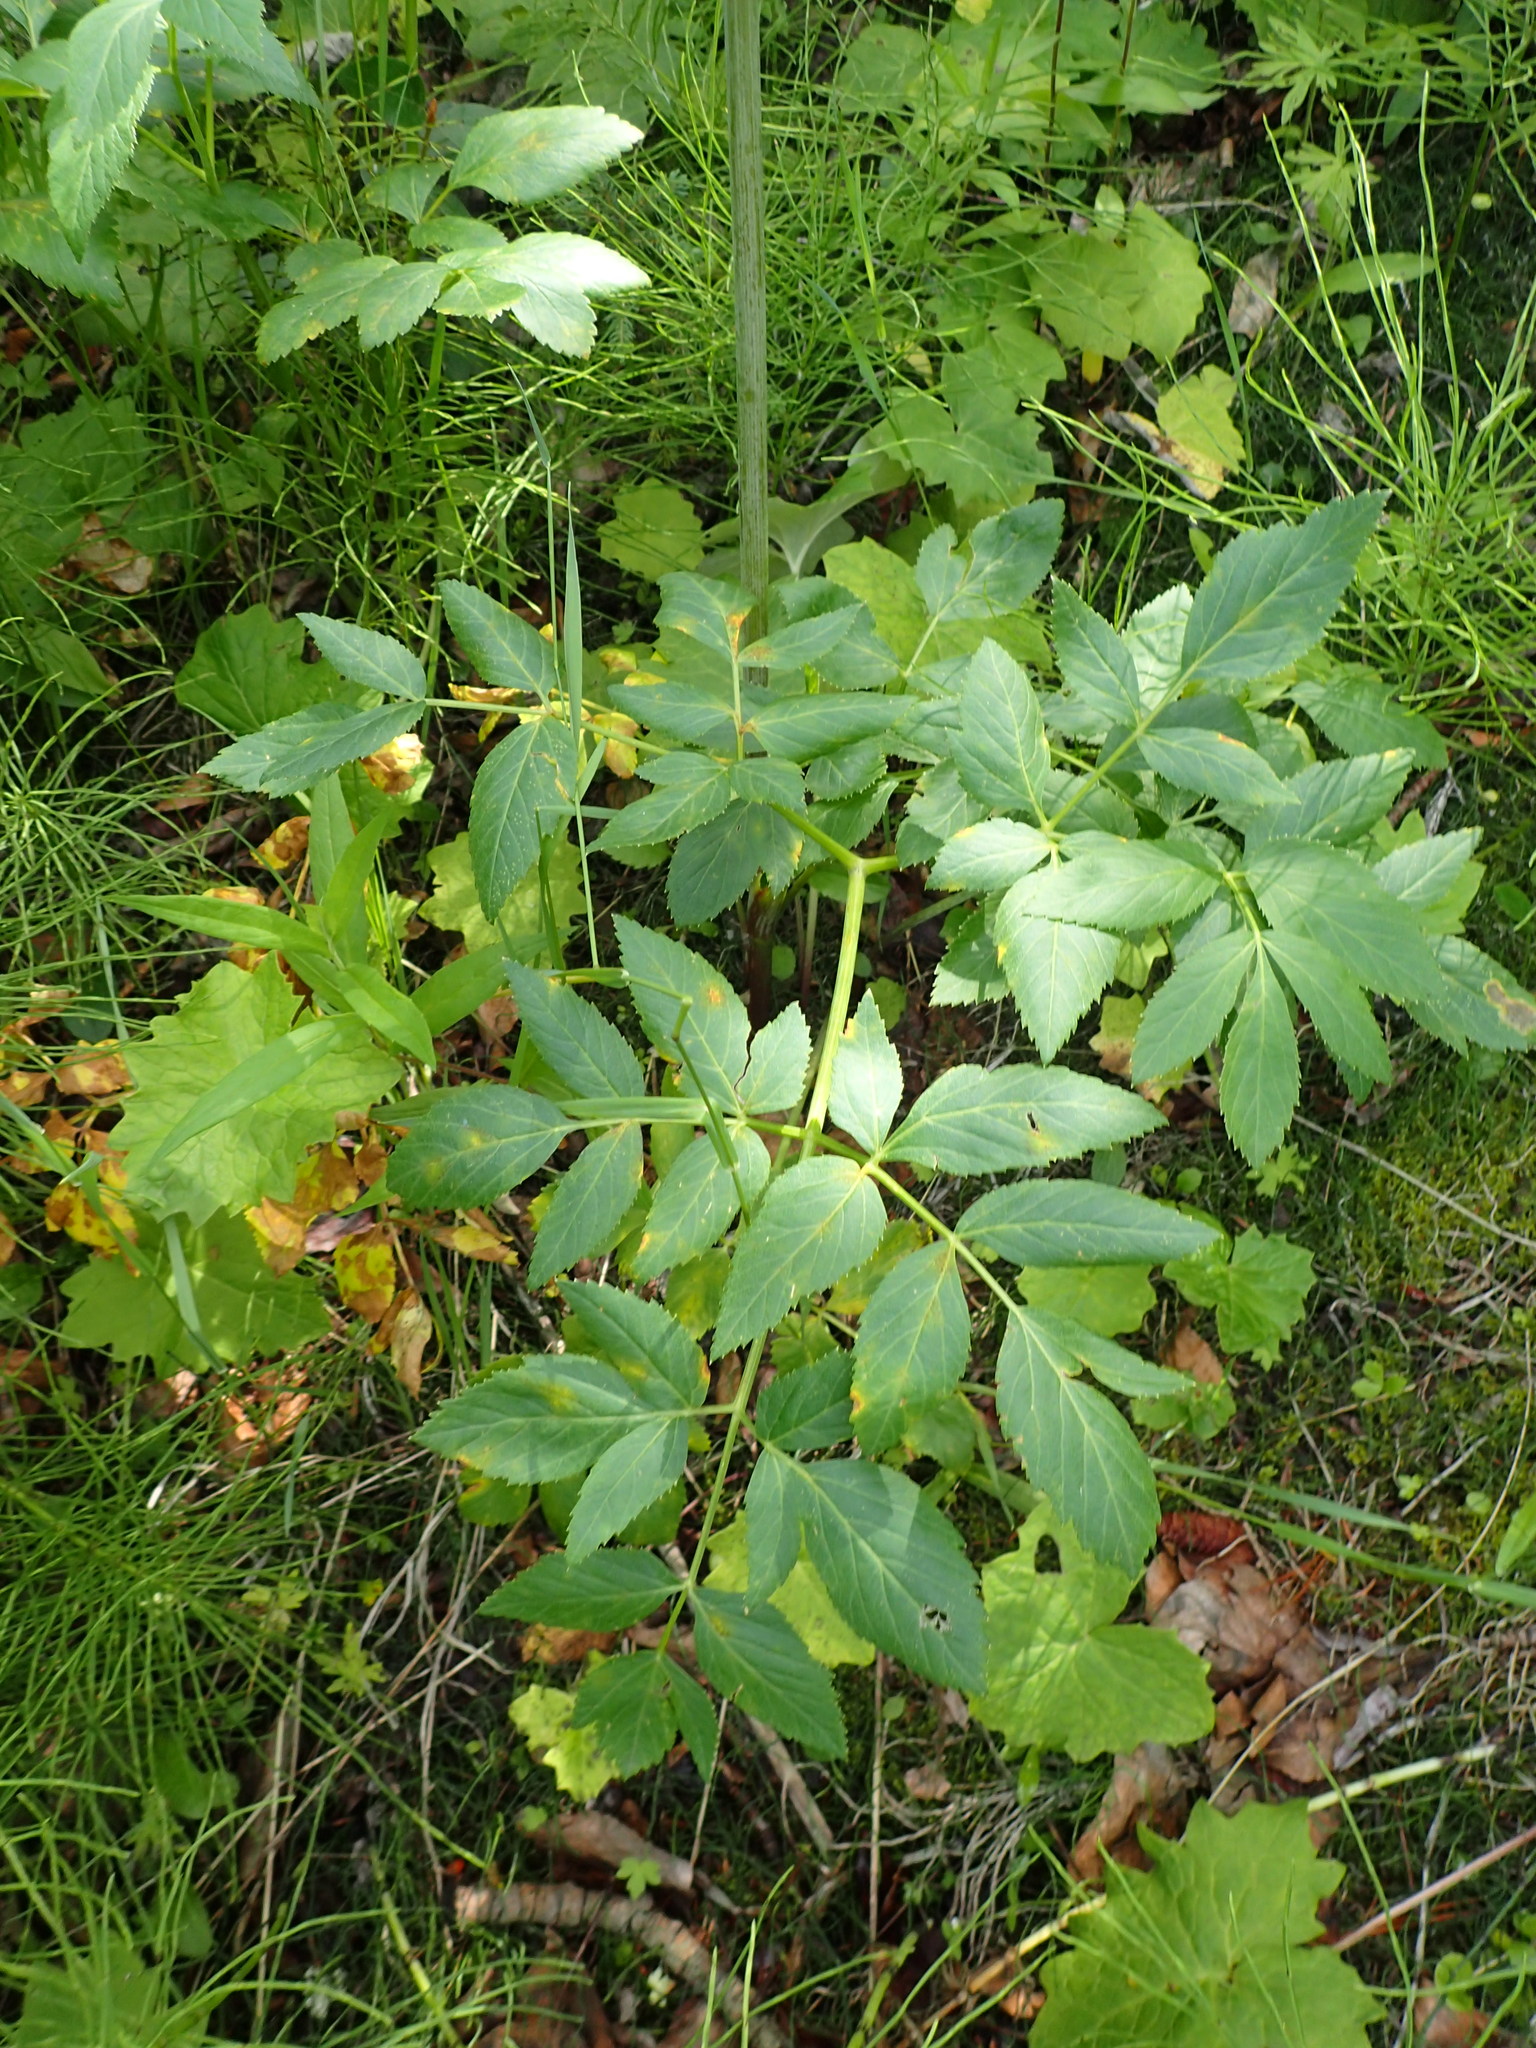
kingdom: Plantae
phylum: Tracheophyta
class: Magnoliopsida
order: Apiales
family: Apiaceae
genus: Angelica
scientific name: Angelica arguta
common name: Lyall's angelica
